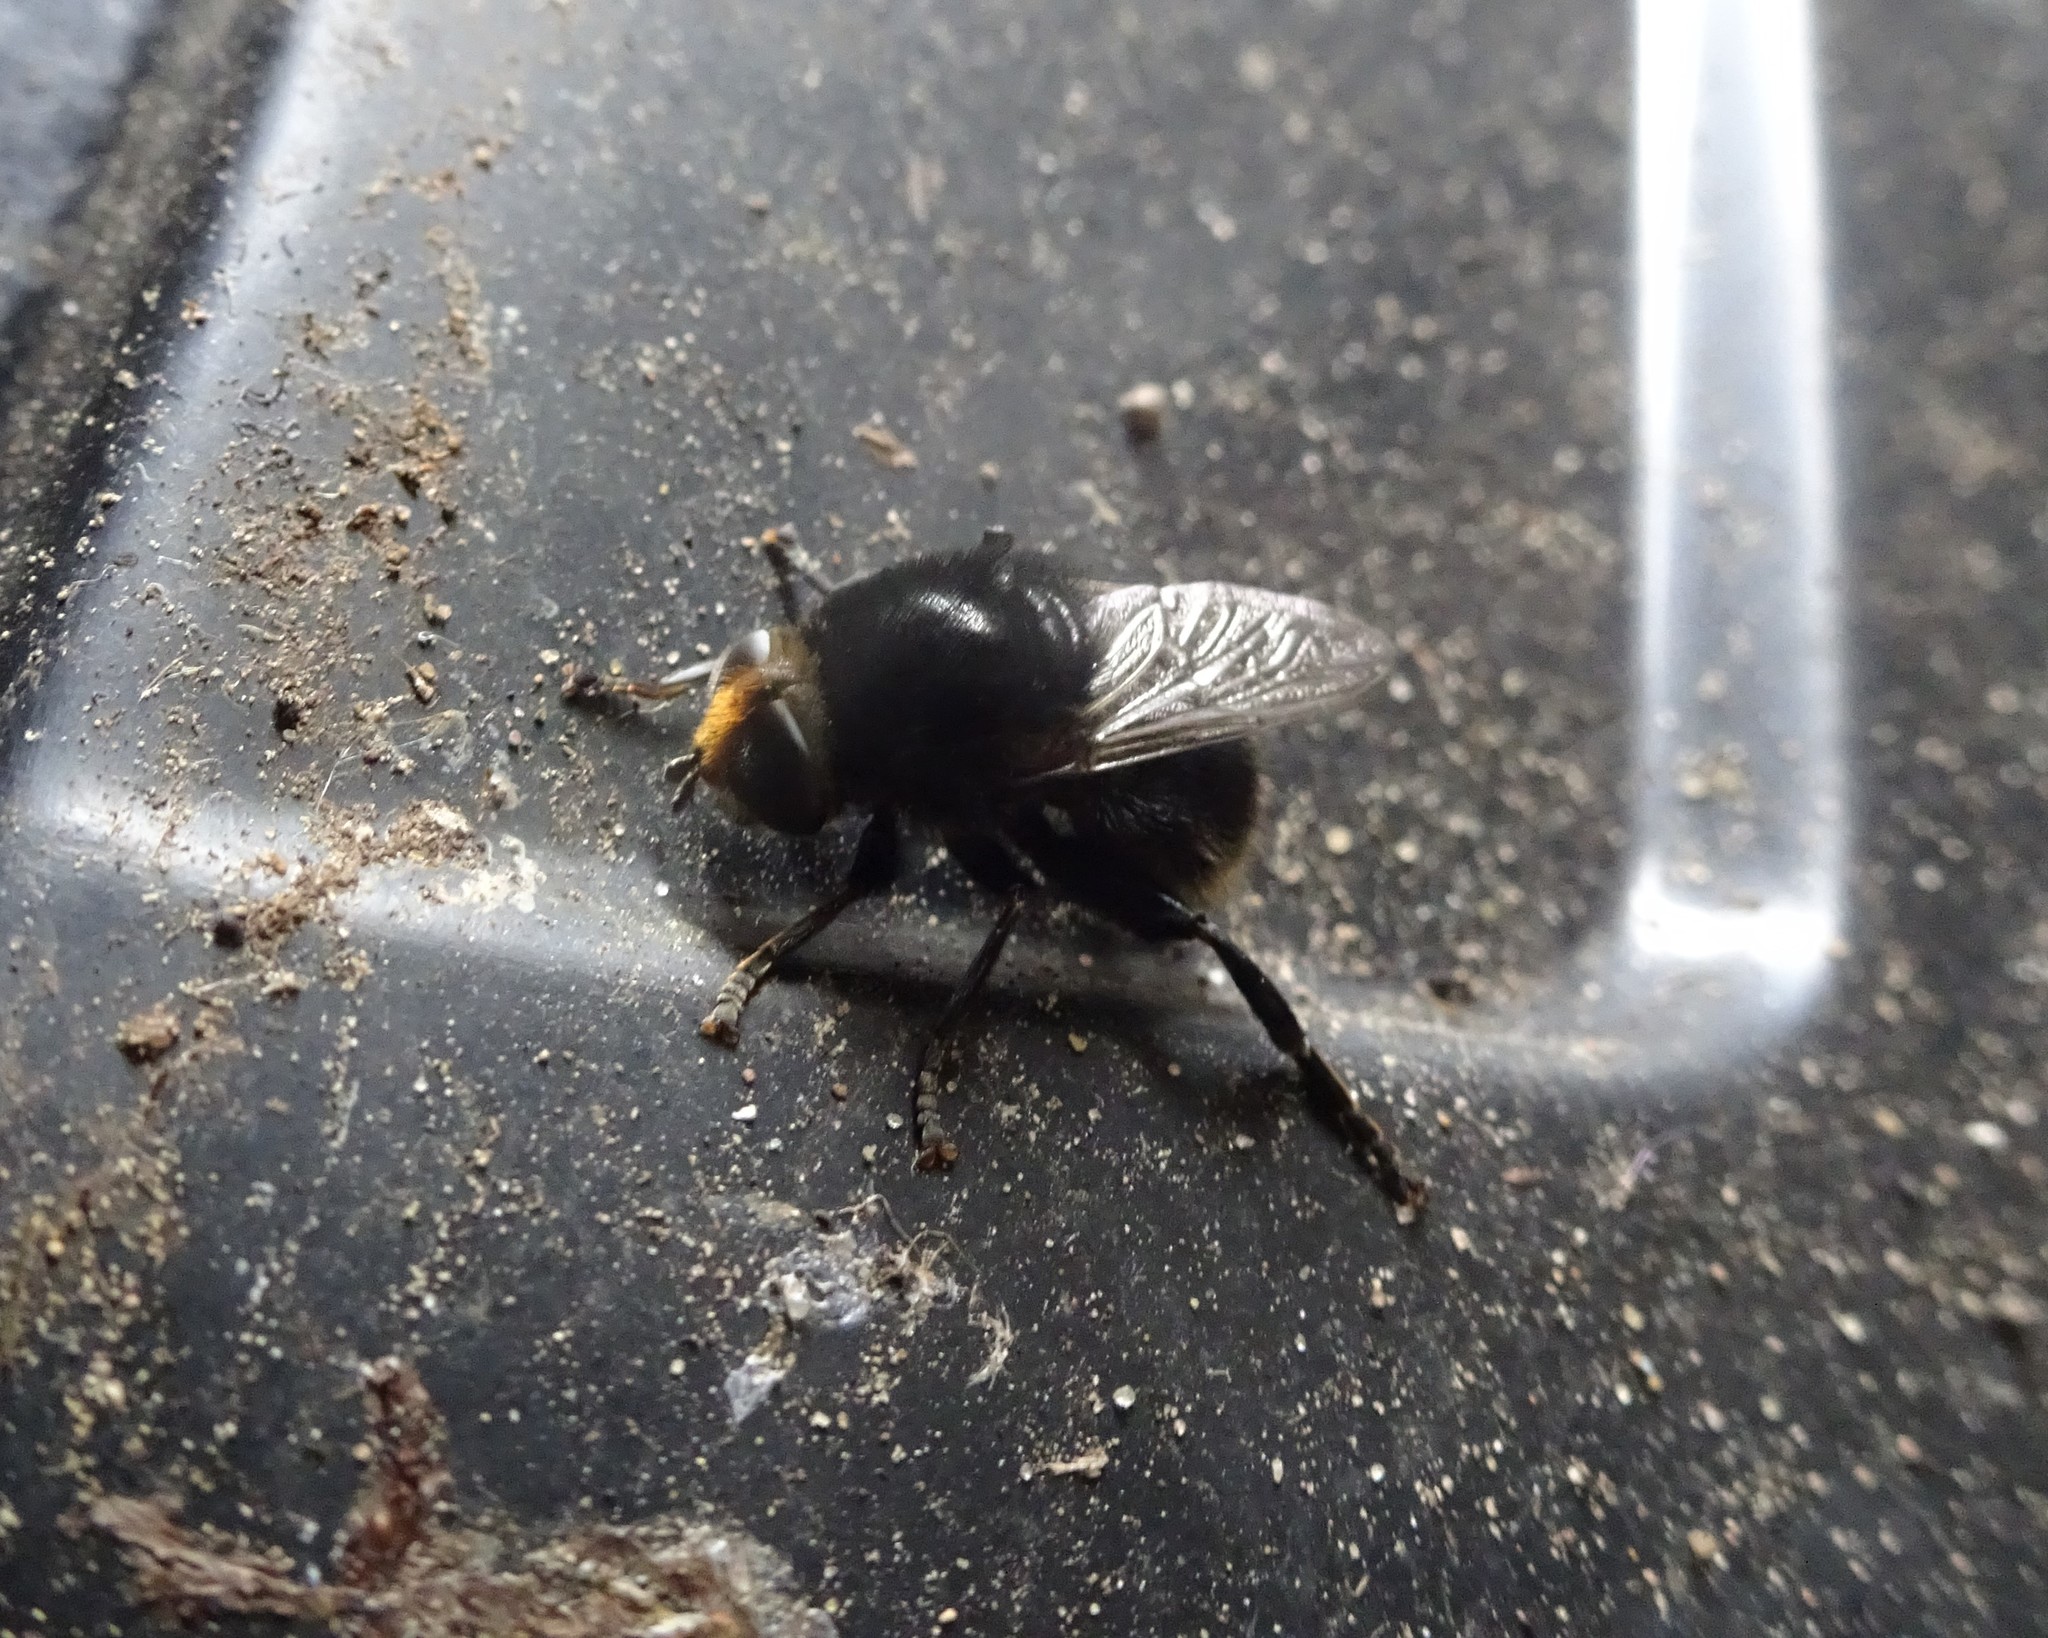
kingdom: Animalia
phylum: Arthropoda
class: Insecta
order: Diptera
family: Syrphidae
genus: Merodon
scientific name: Merodon equestris
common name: Greater bulb-fly
